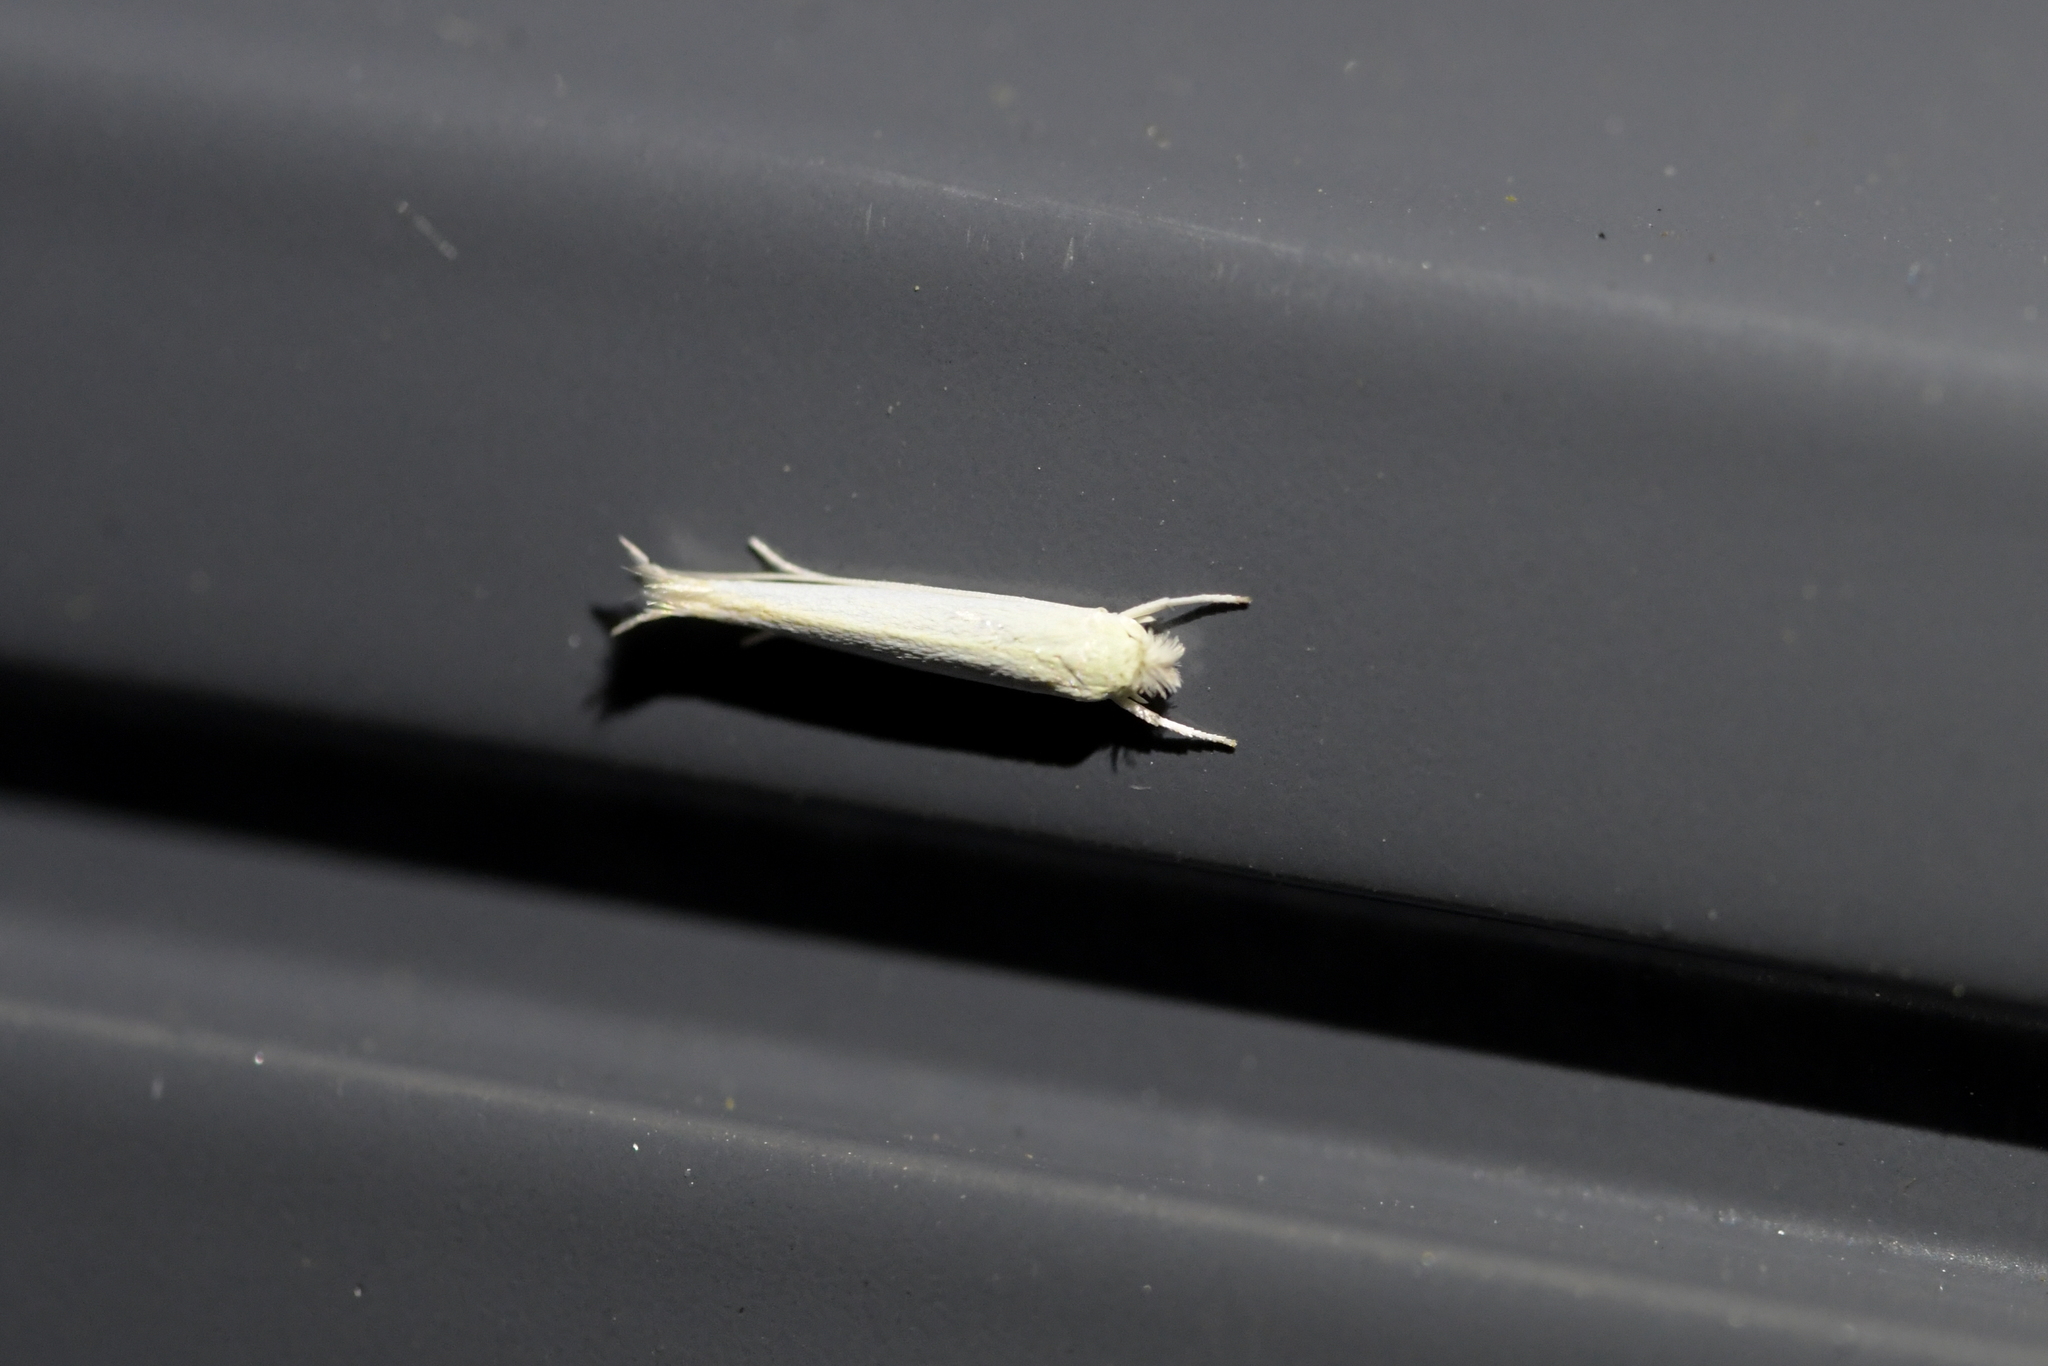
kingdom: Animalia
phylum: Arthropoda
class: Insecta
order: Lepidoptera
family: Lyonetiidae
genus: Stegommata
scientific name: Stegommata sulfuratella
